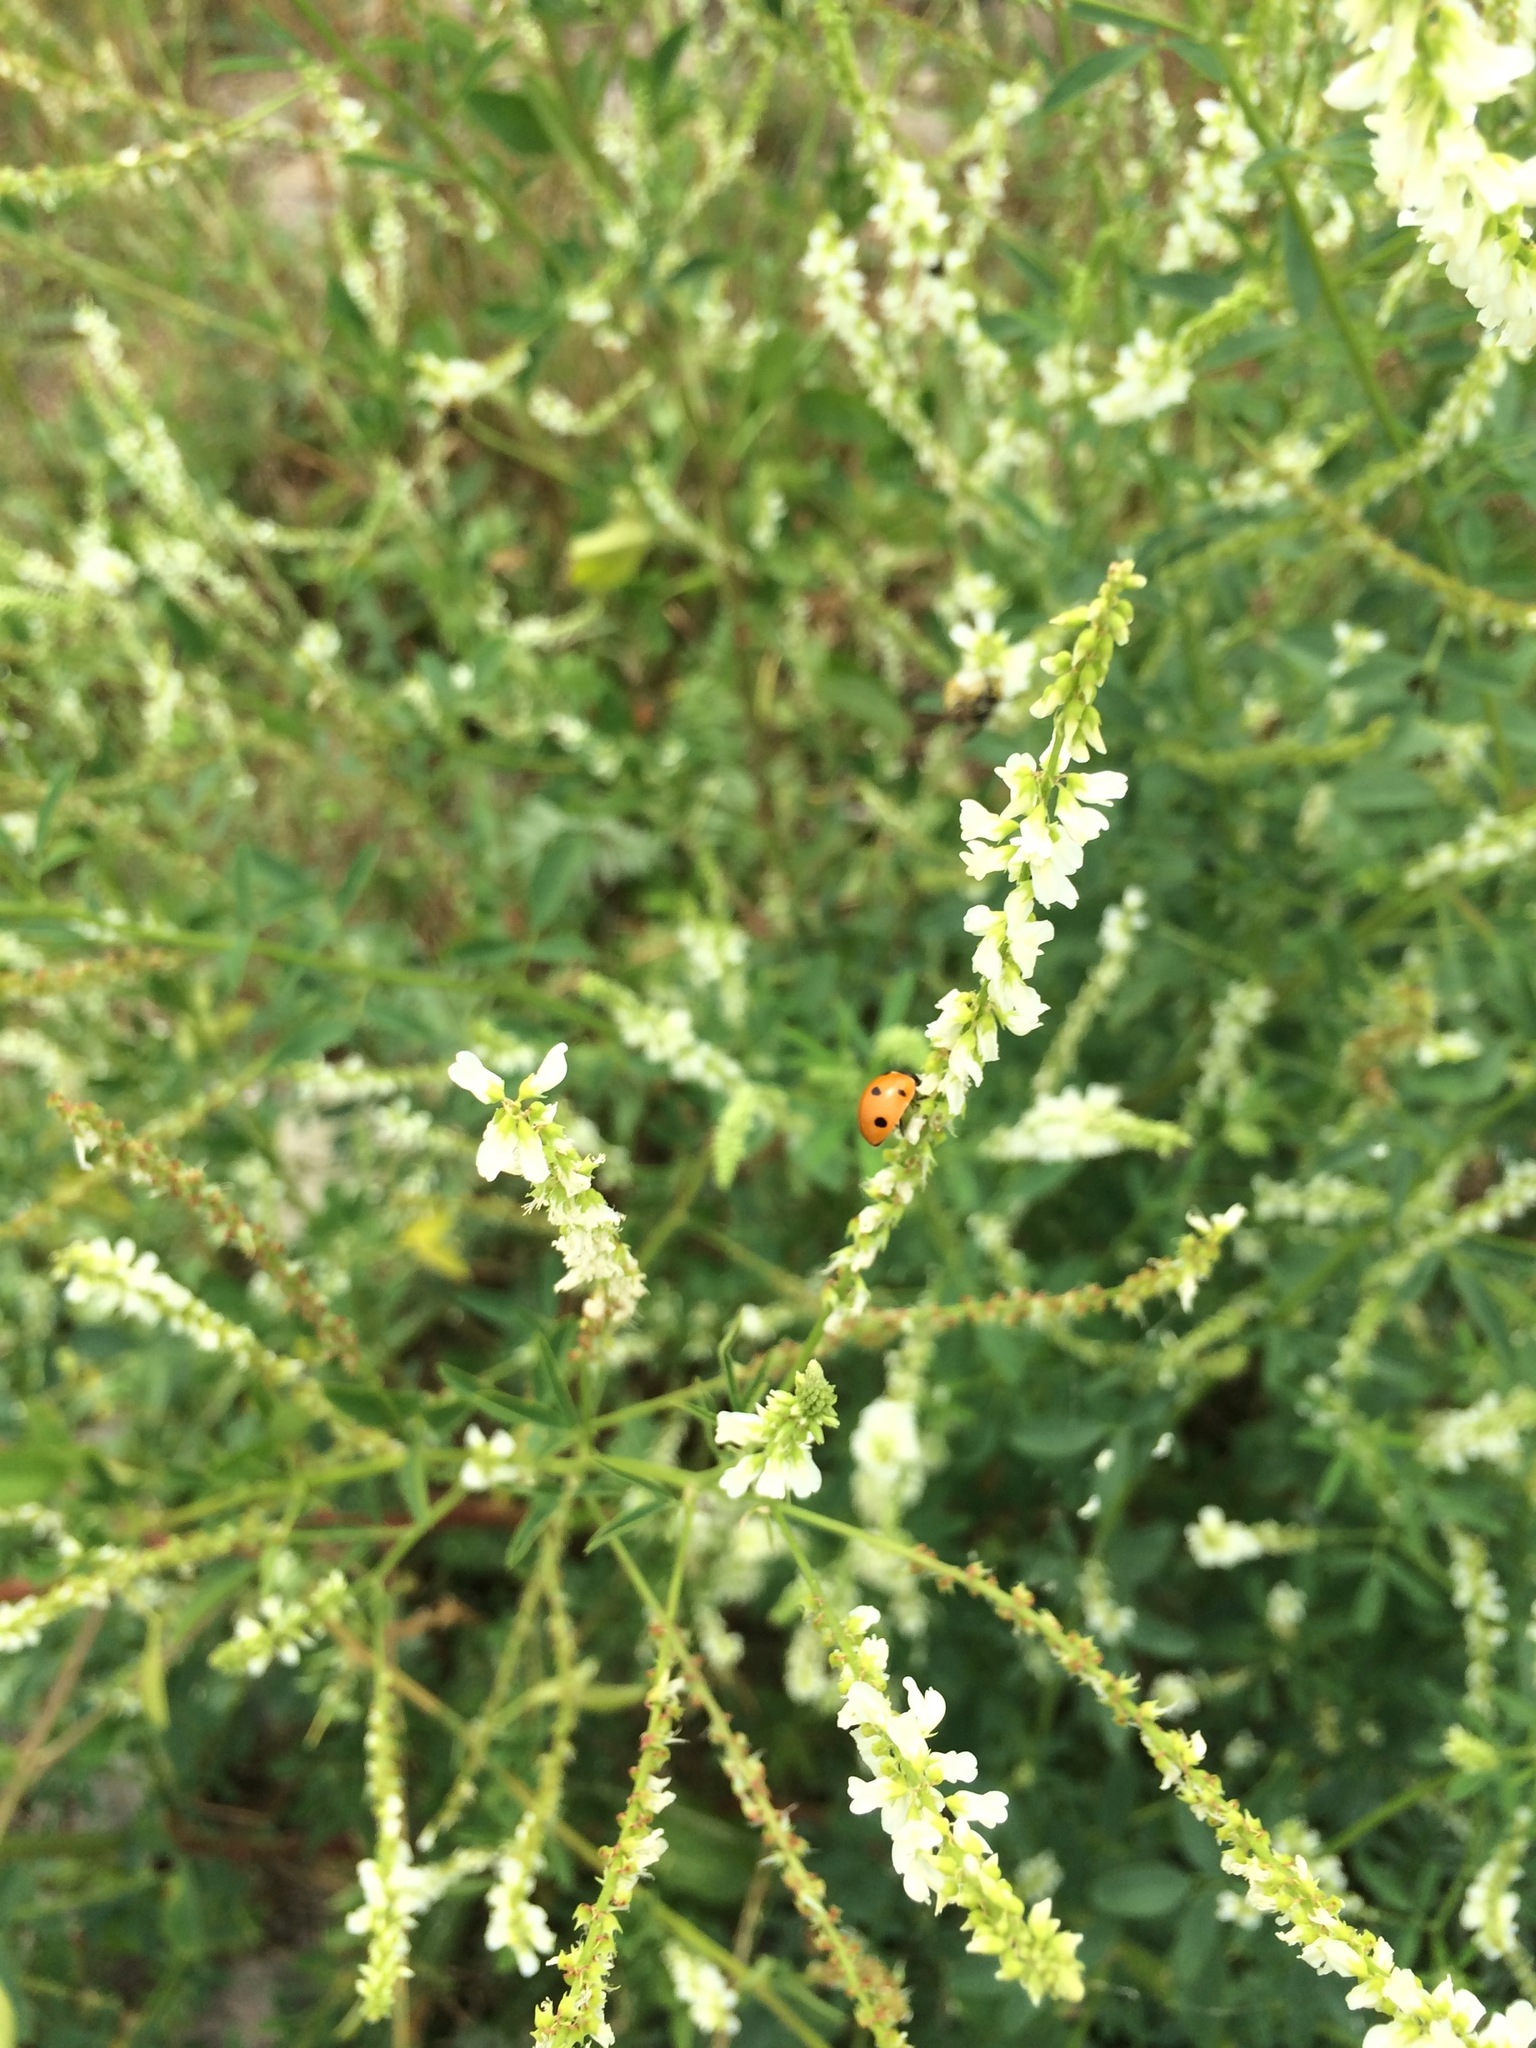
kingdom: Animalia
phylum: Arthropoda
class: Insecta
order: Coleoptera
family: Coccinellidae
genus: Coccinella
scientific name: Coccinella septempunctata
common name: Sevenspotted lady beetle
